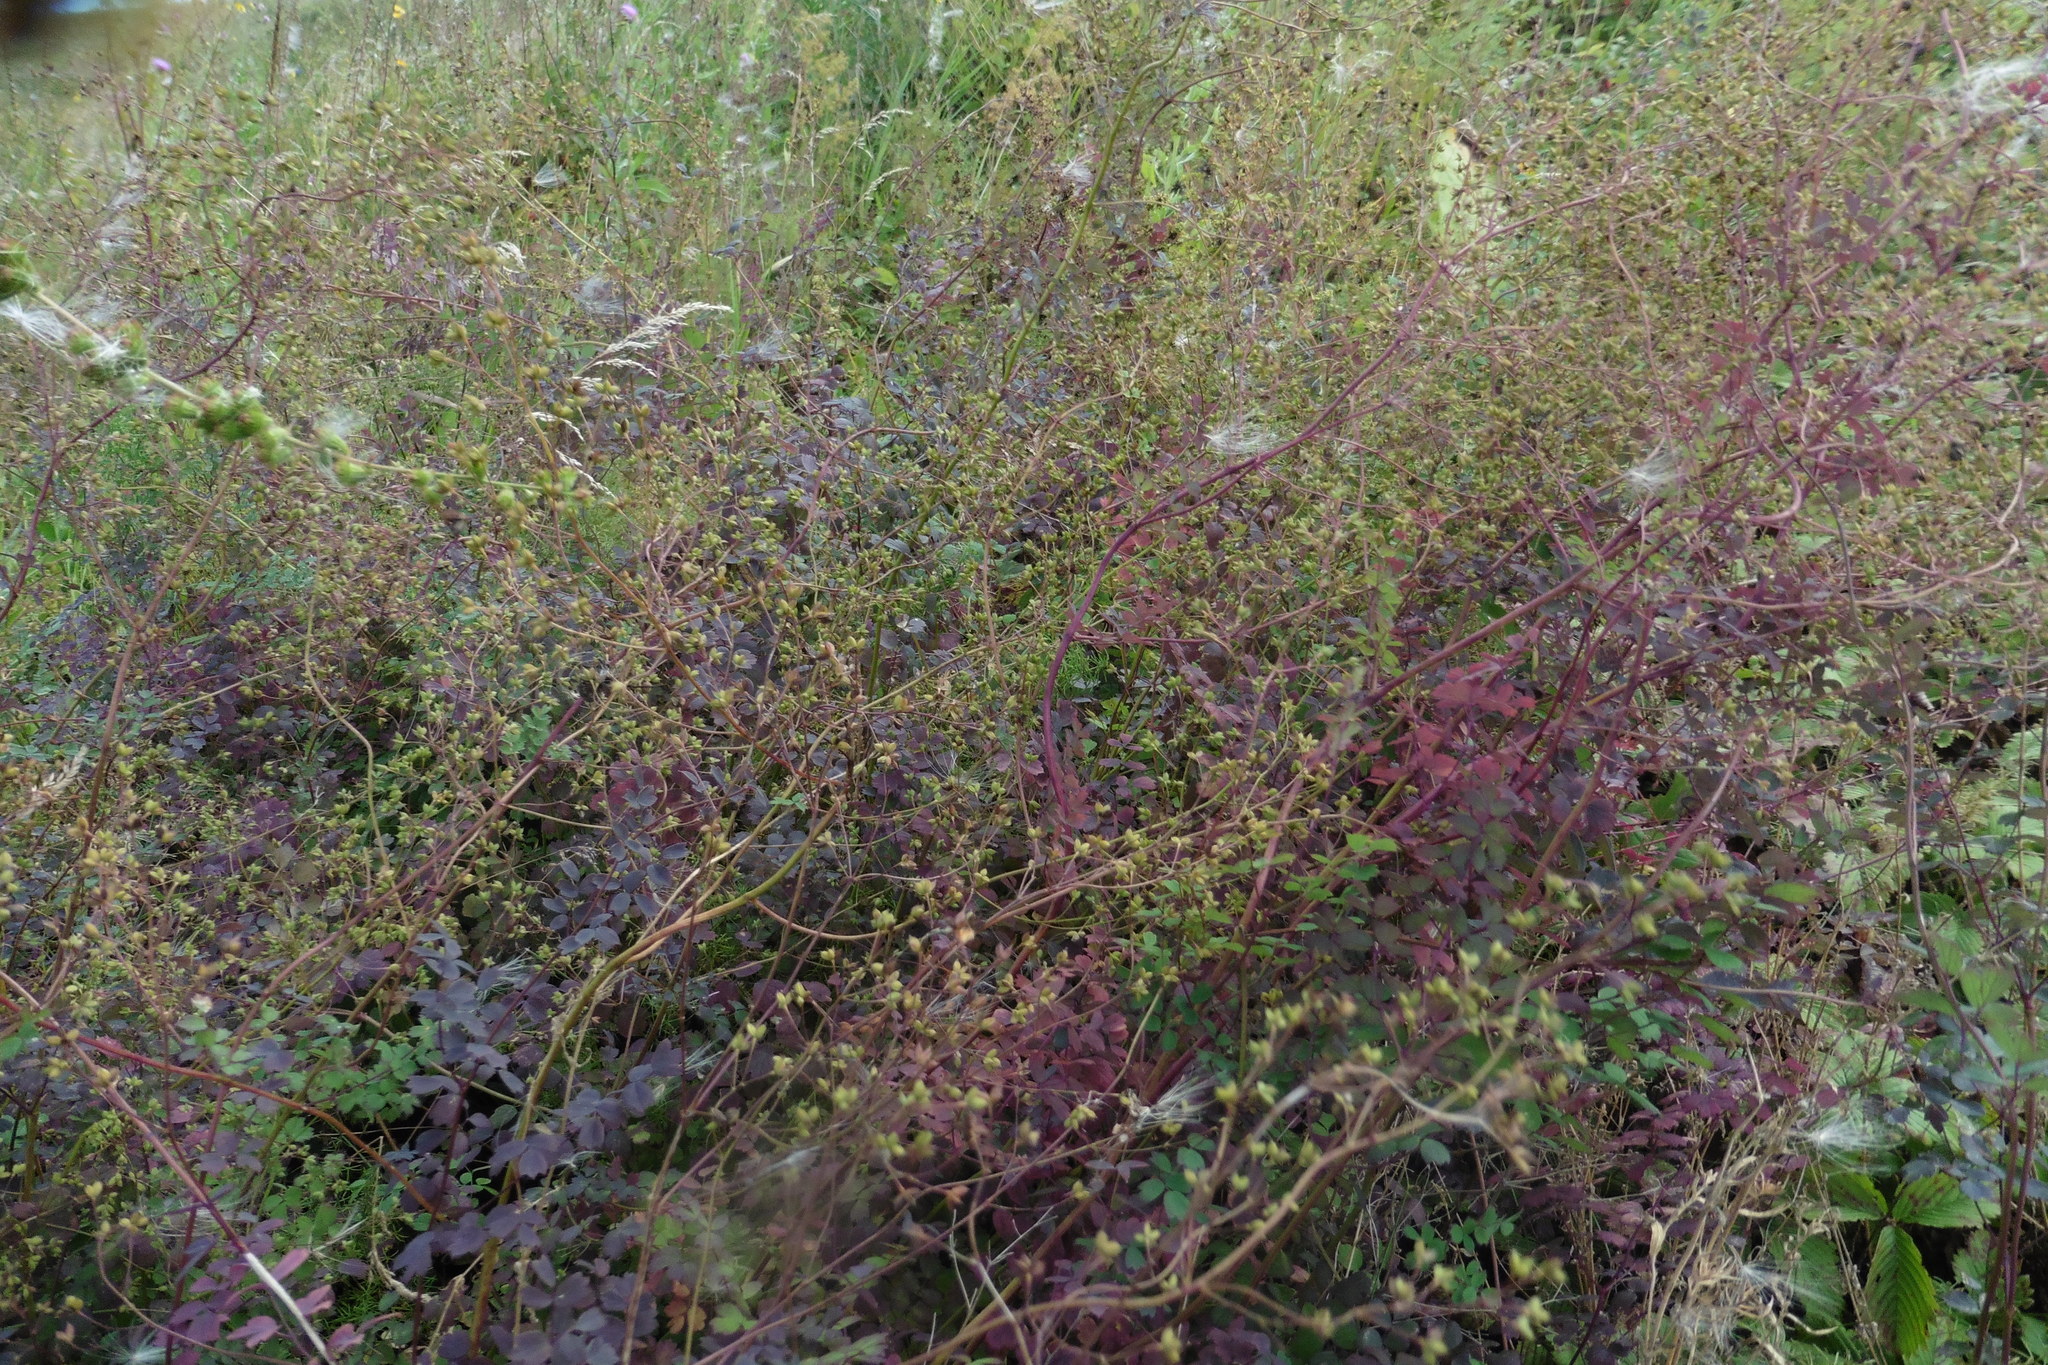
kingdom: Plantae
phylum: Tracheophyta
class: Magnoliopsida
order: Ranunculales
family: Ranunculaceae
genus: Thalictrum
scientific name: Thalictrum minus
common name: Lesser meadow-rue
